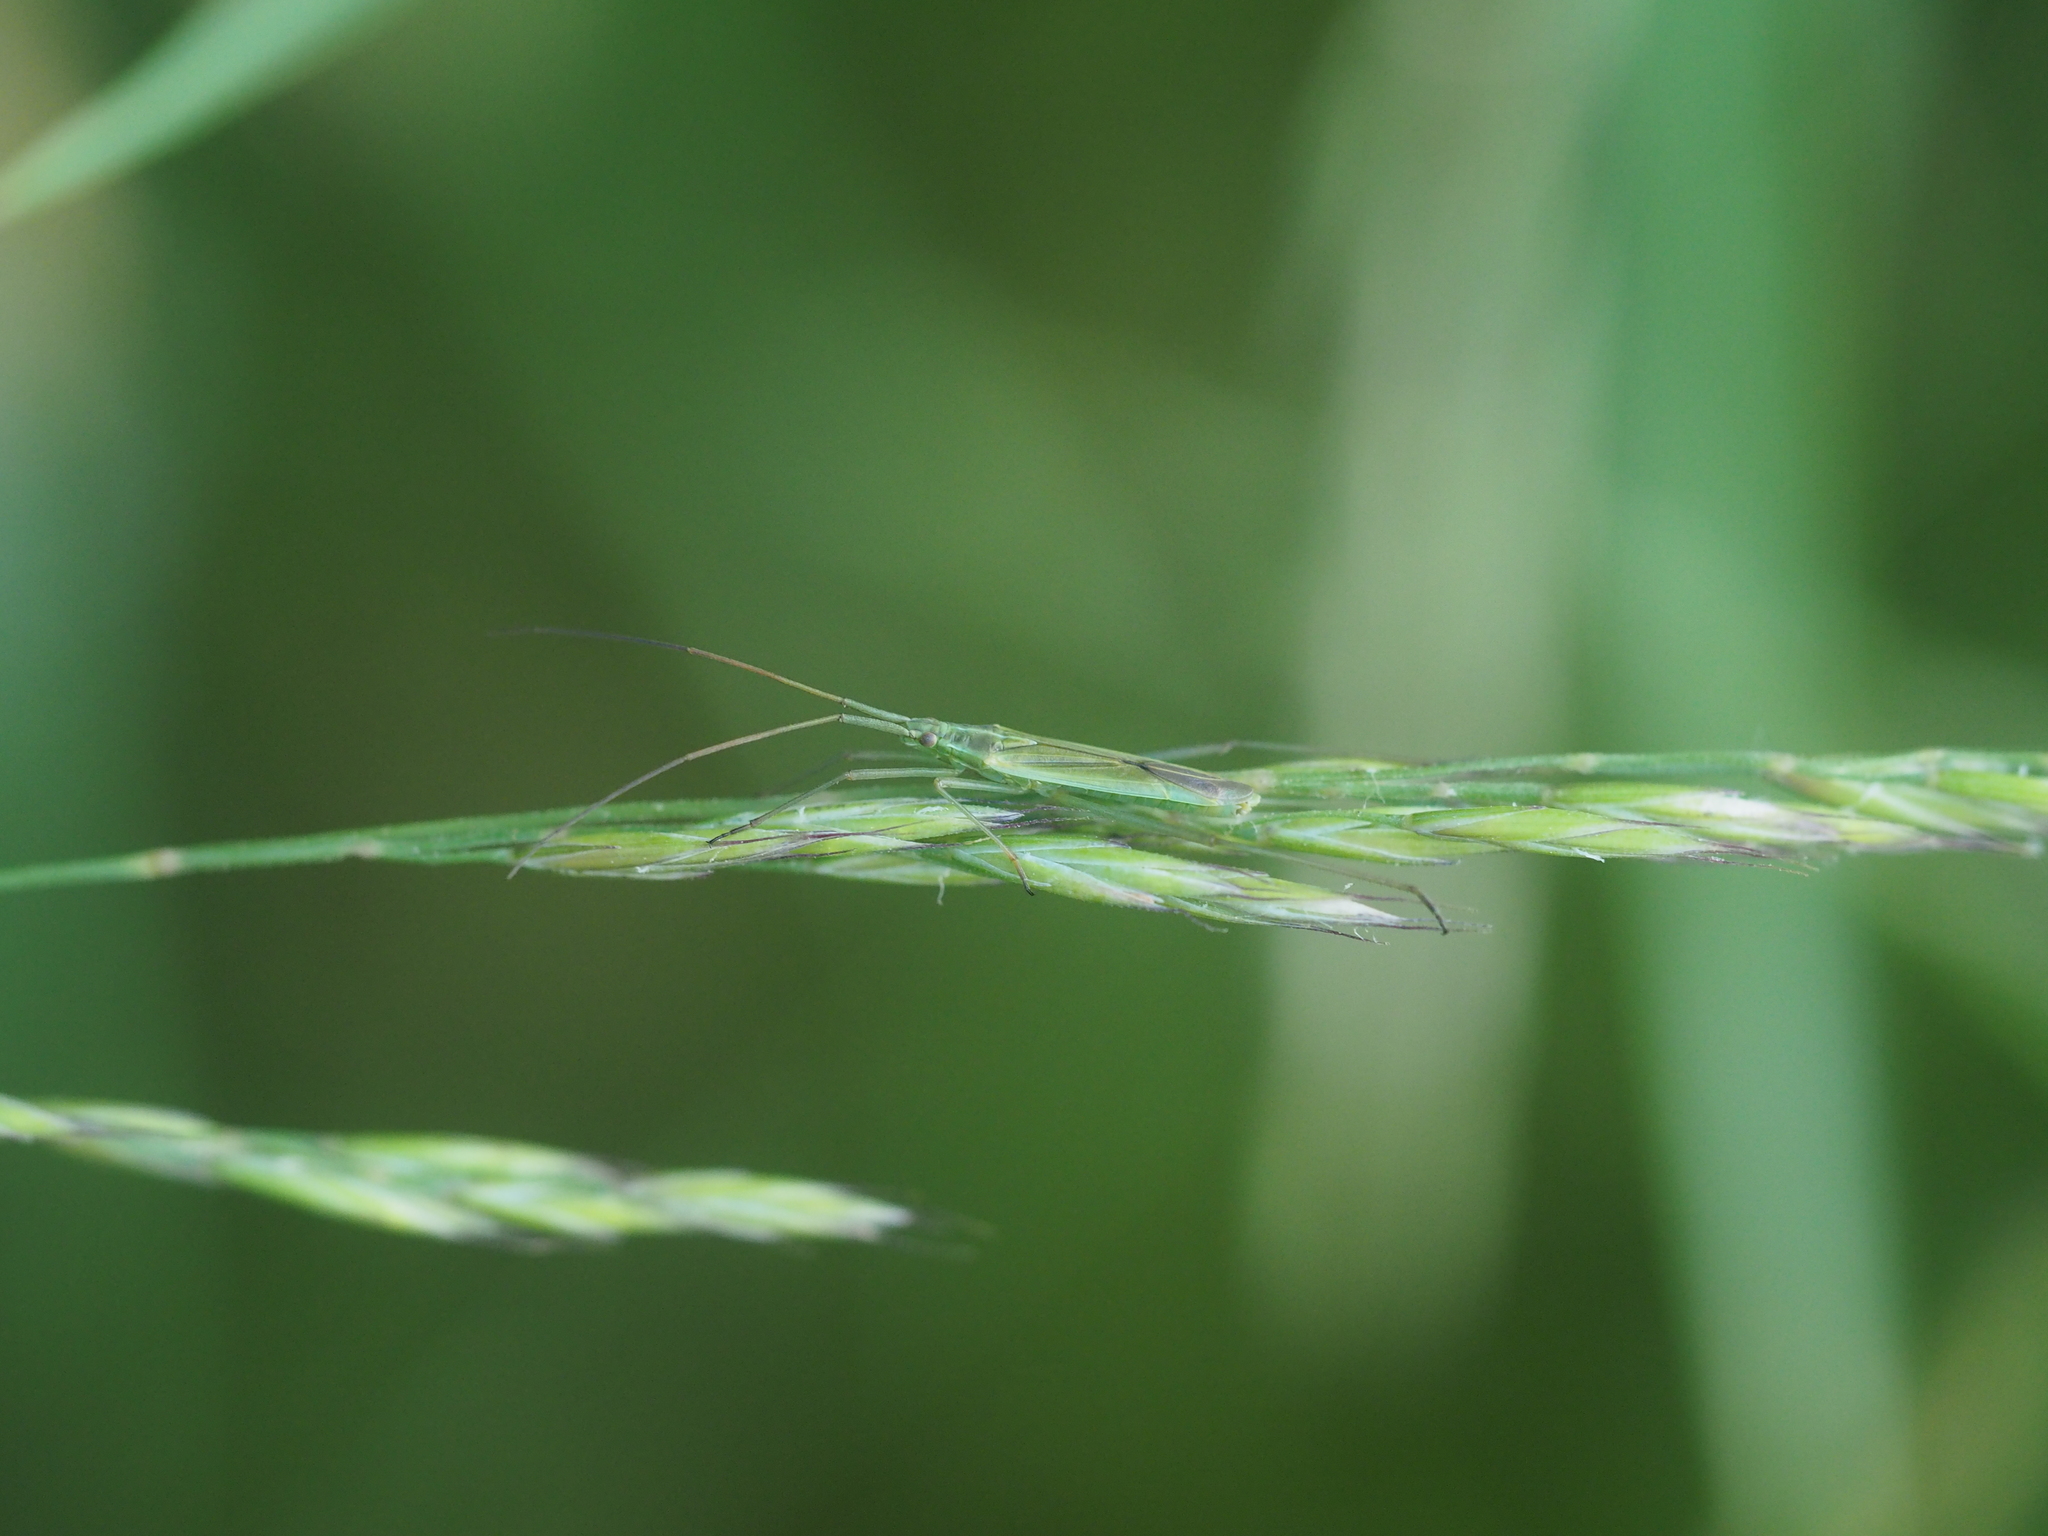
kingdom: Animalia
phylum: Arthropoda
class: Insecta
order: Hemiptera
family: Miridae
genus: Megaloceroea
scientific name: Megaloceroea recticornis
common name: Plant bug
